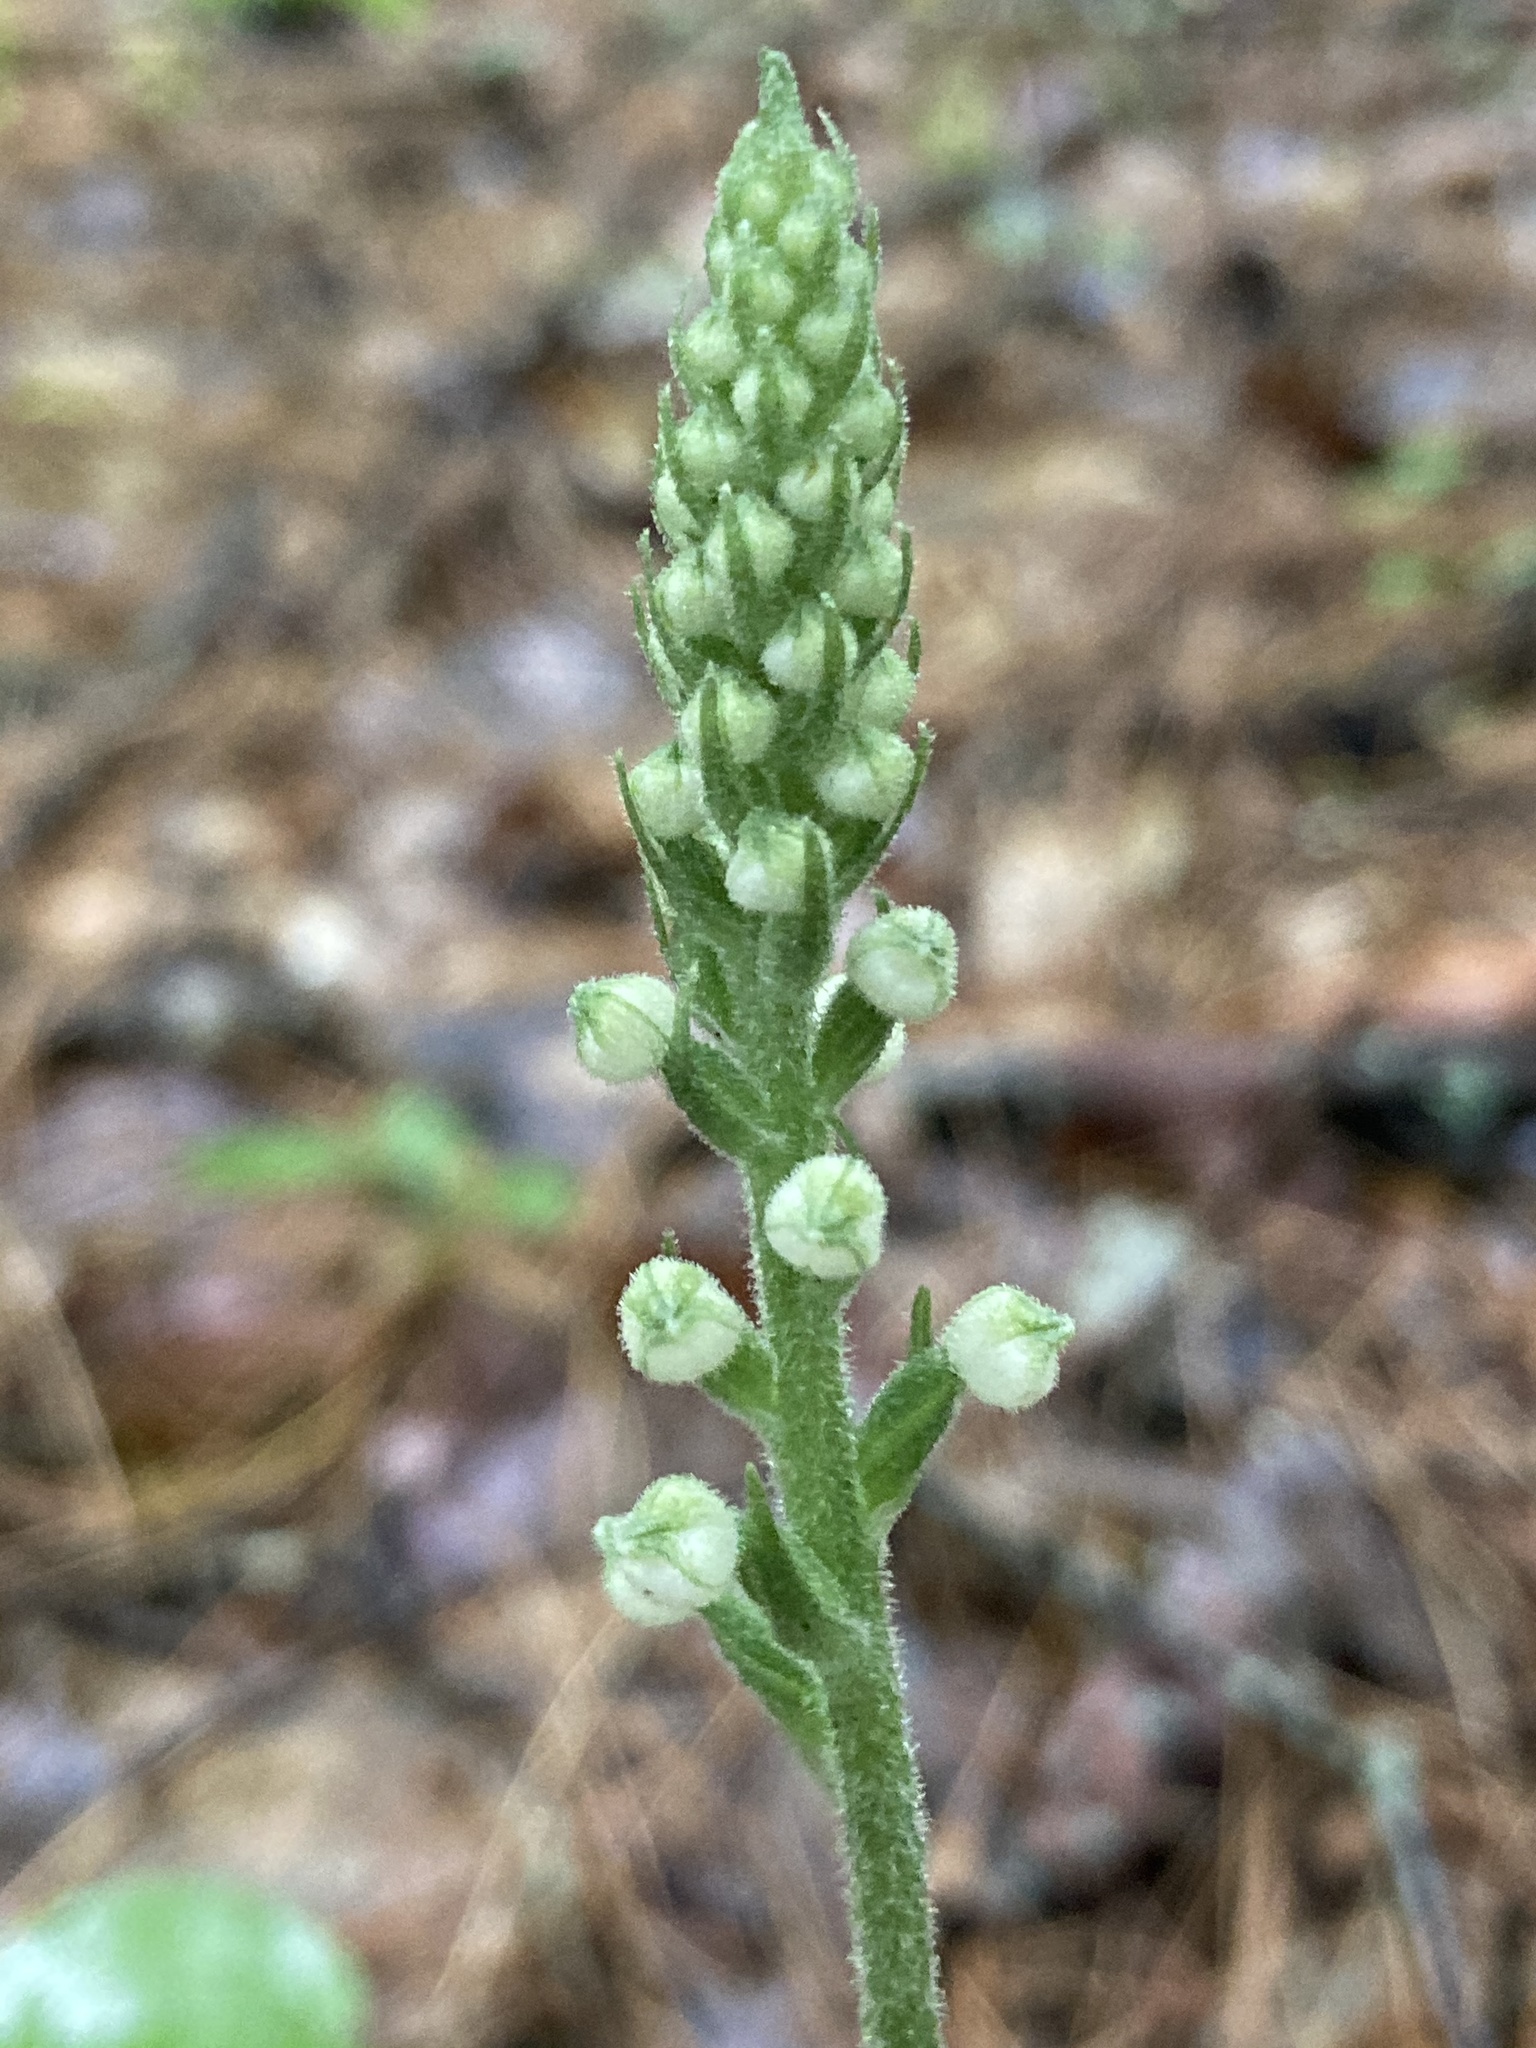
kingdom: Plantae
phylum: Tracheophyta
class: Liliopsida
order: Asparagales
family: Orchidaceae
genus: Goodyera
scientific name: Goodyera pubescens
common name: Downy rattlesnake-plantain
